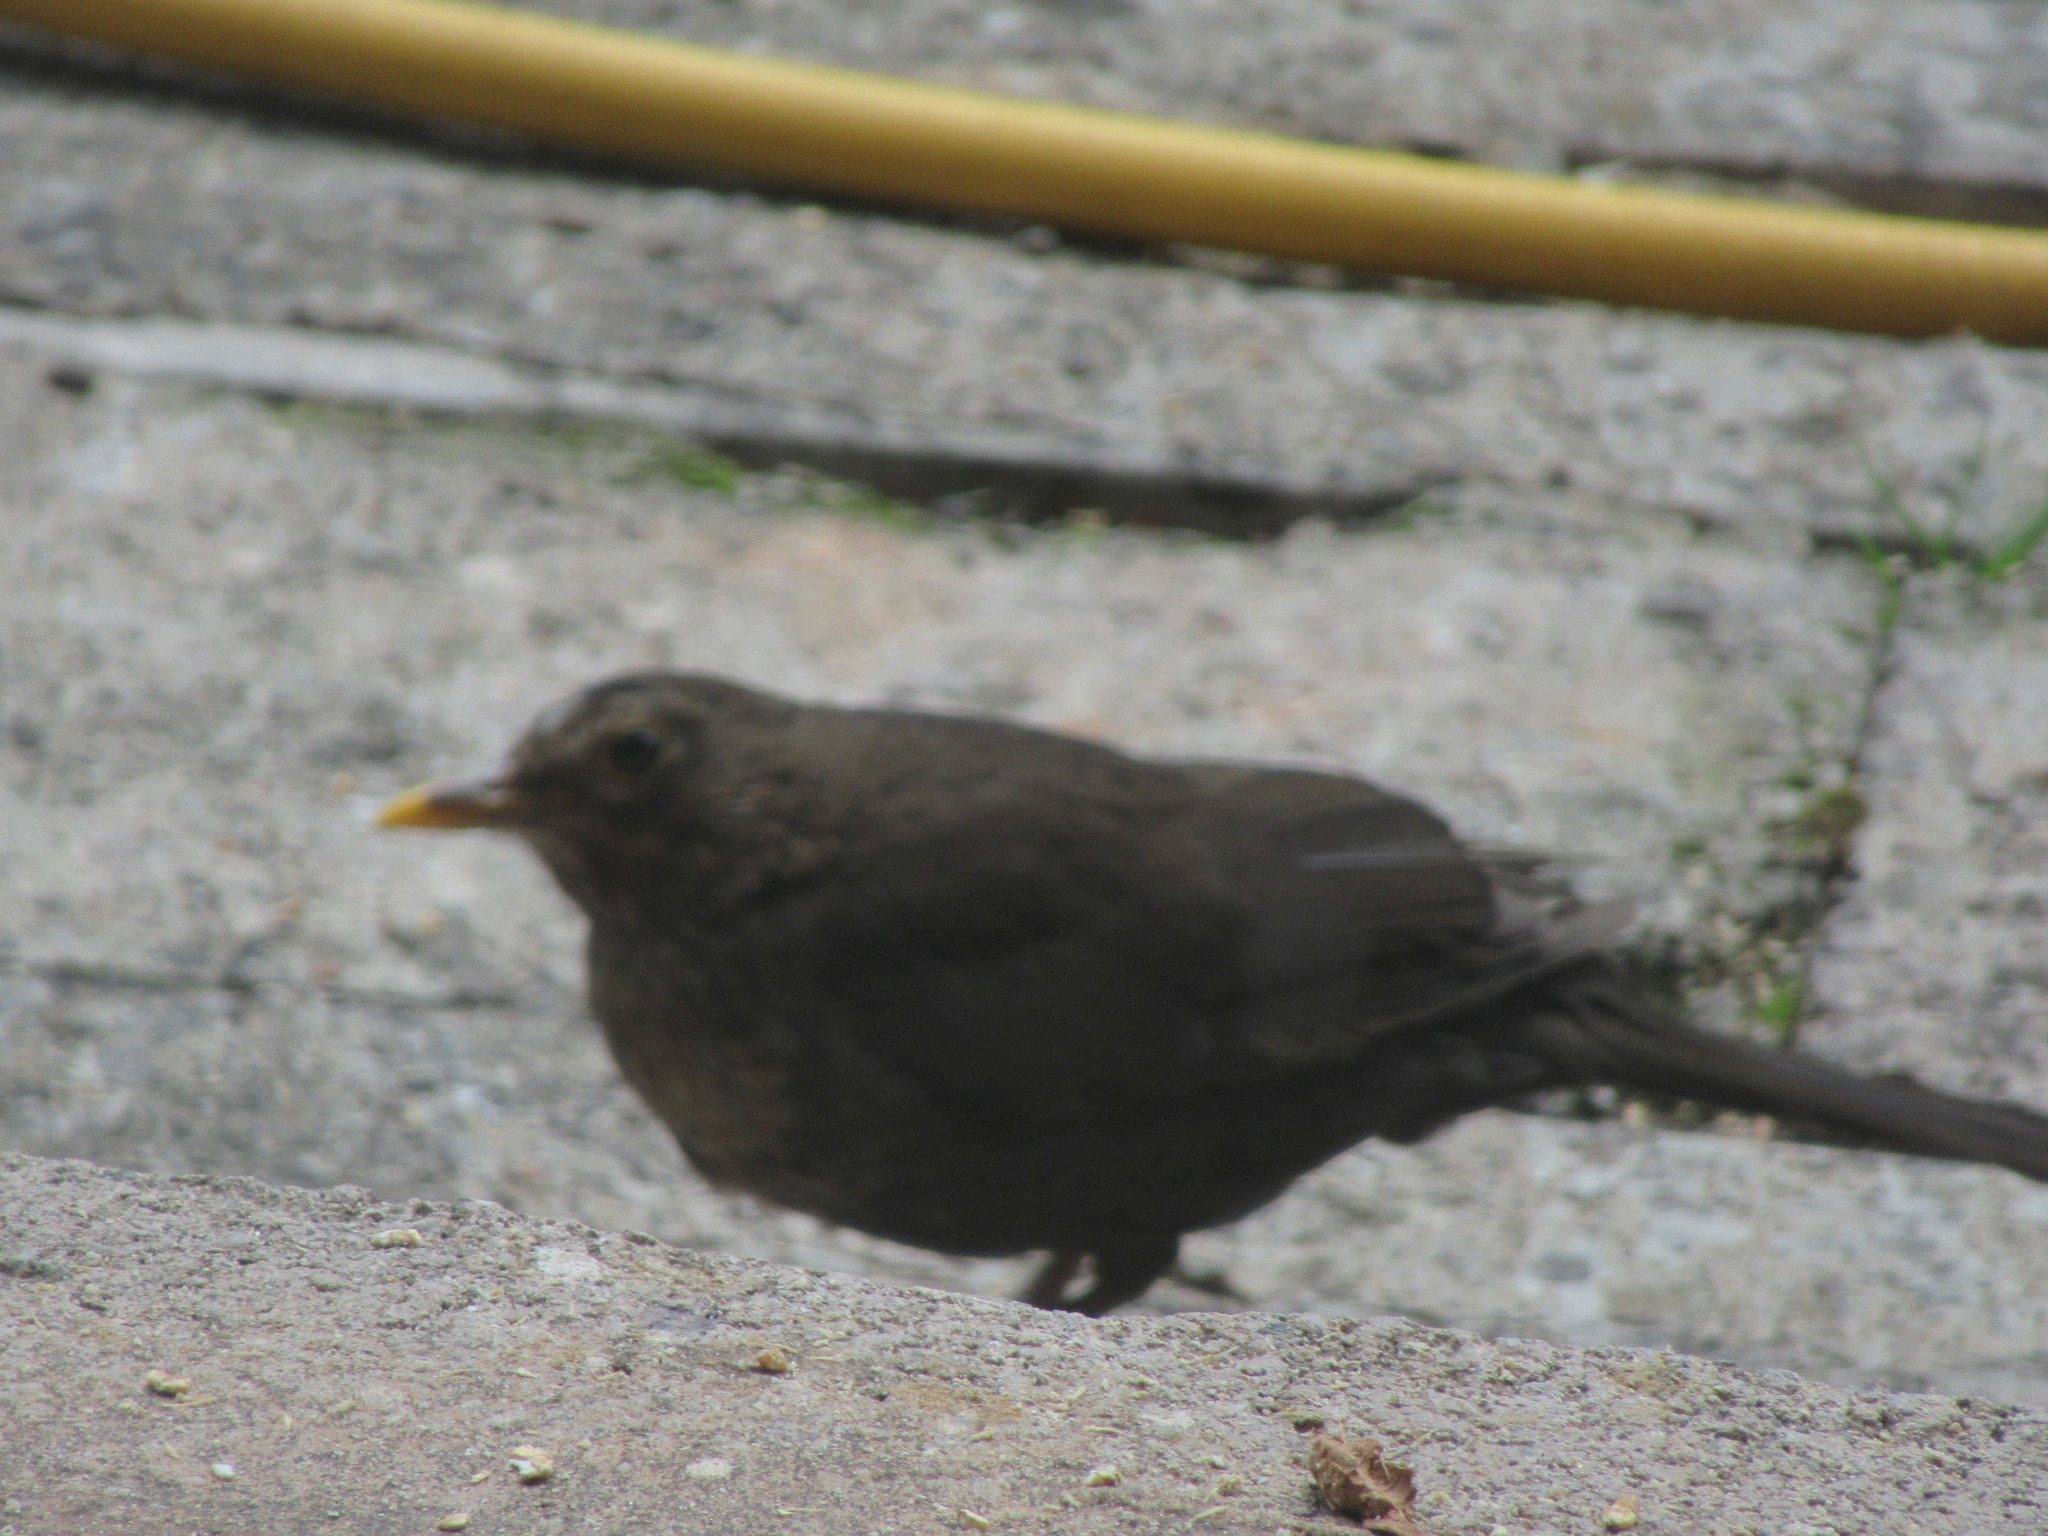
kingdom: Animalia
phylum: Chordata
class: Aves
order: Passeriformes
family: Turdidae
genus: Turdus
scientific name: Turdus merula
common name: Common blackbird
